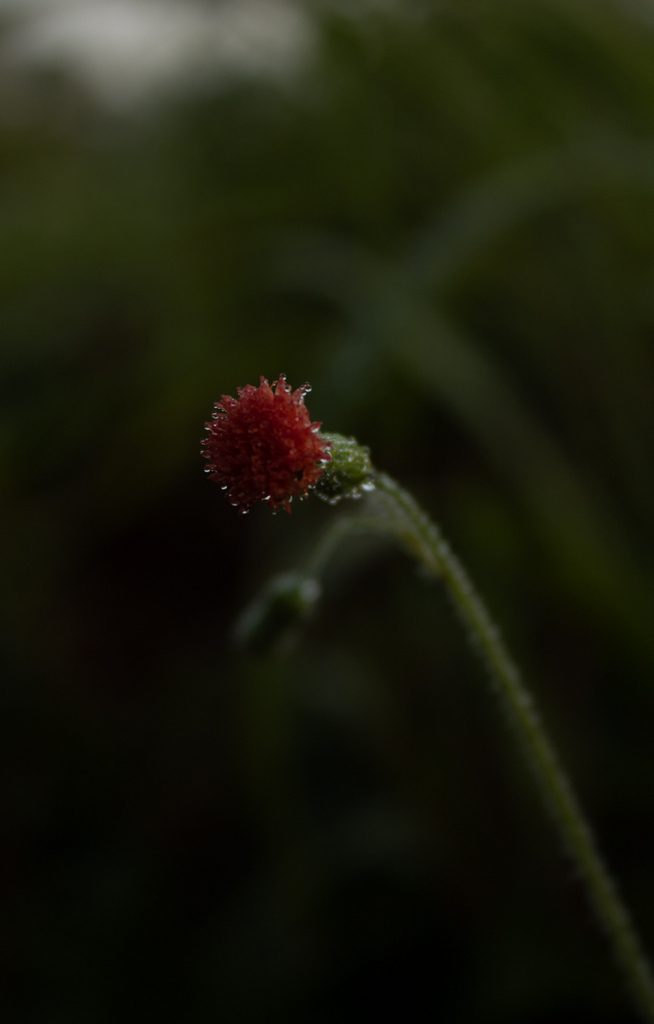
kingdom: Plantae
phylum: Tracheophyta
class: Magnoliopsida
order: Asterales
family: Asteraceae
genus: Emilia
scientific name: Emilia fosbergii
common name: Florida tasselflower
